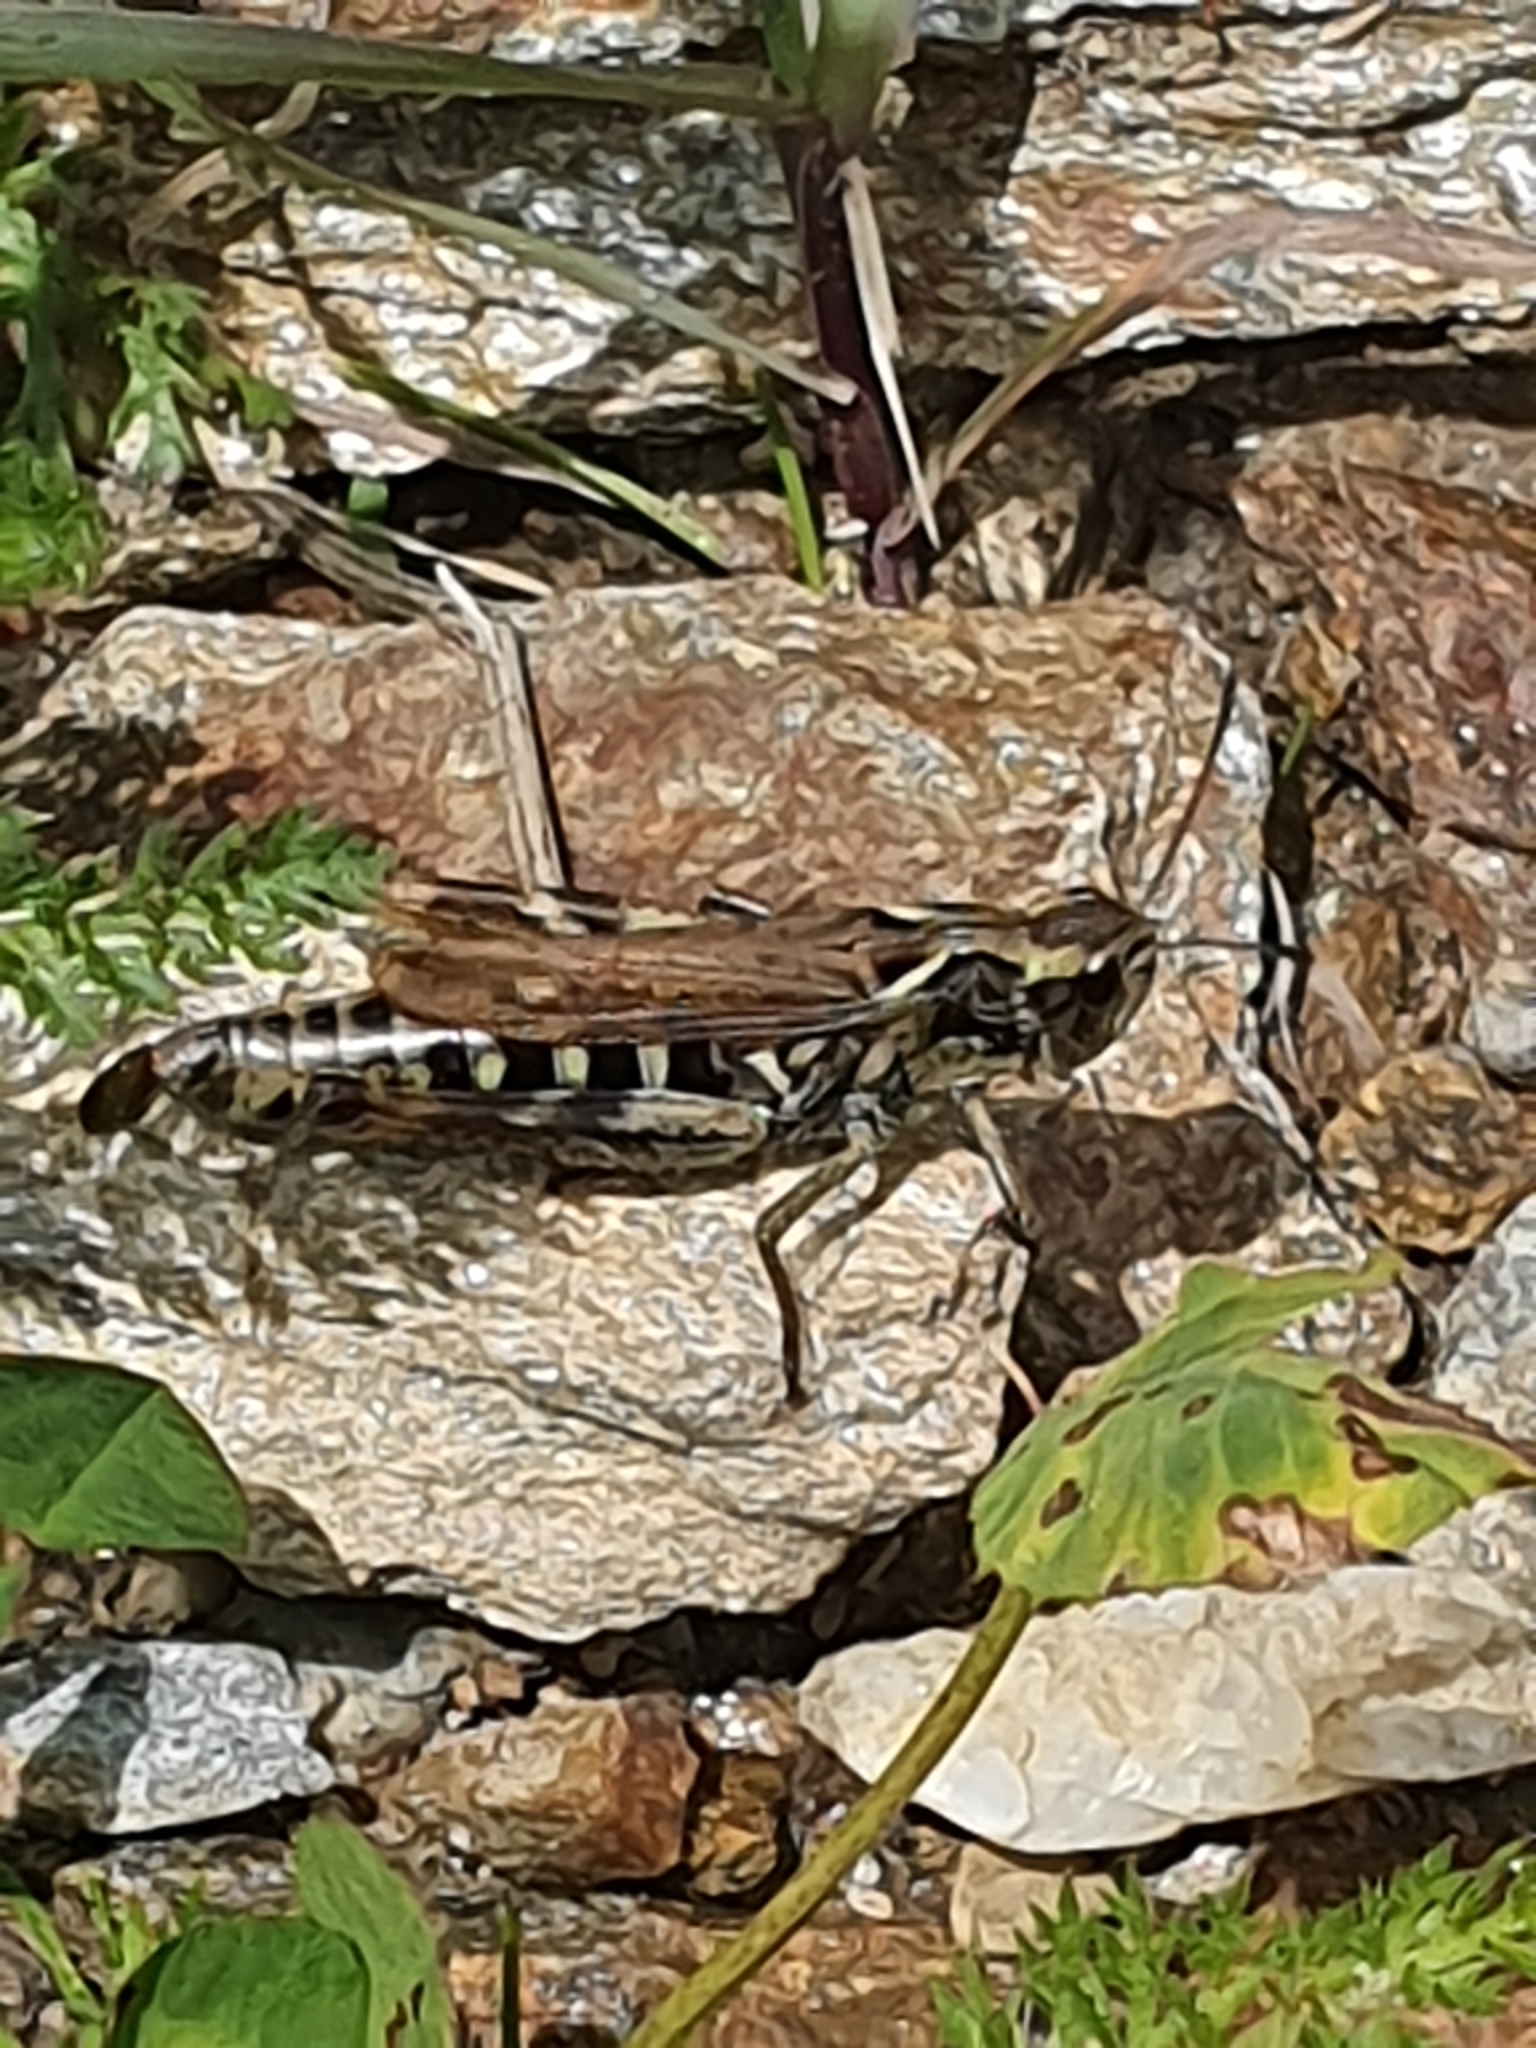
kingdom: Animalia
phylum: Arthropoda
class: Insecta
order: Orthoptera
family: Acrididae
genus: Gomphocerus
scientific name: Gomphocerus sibiricus
